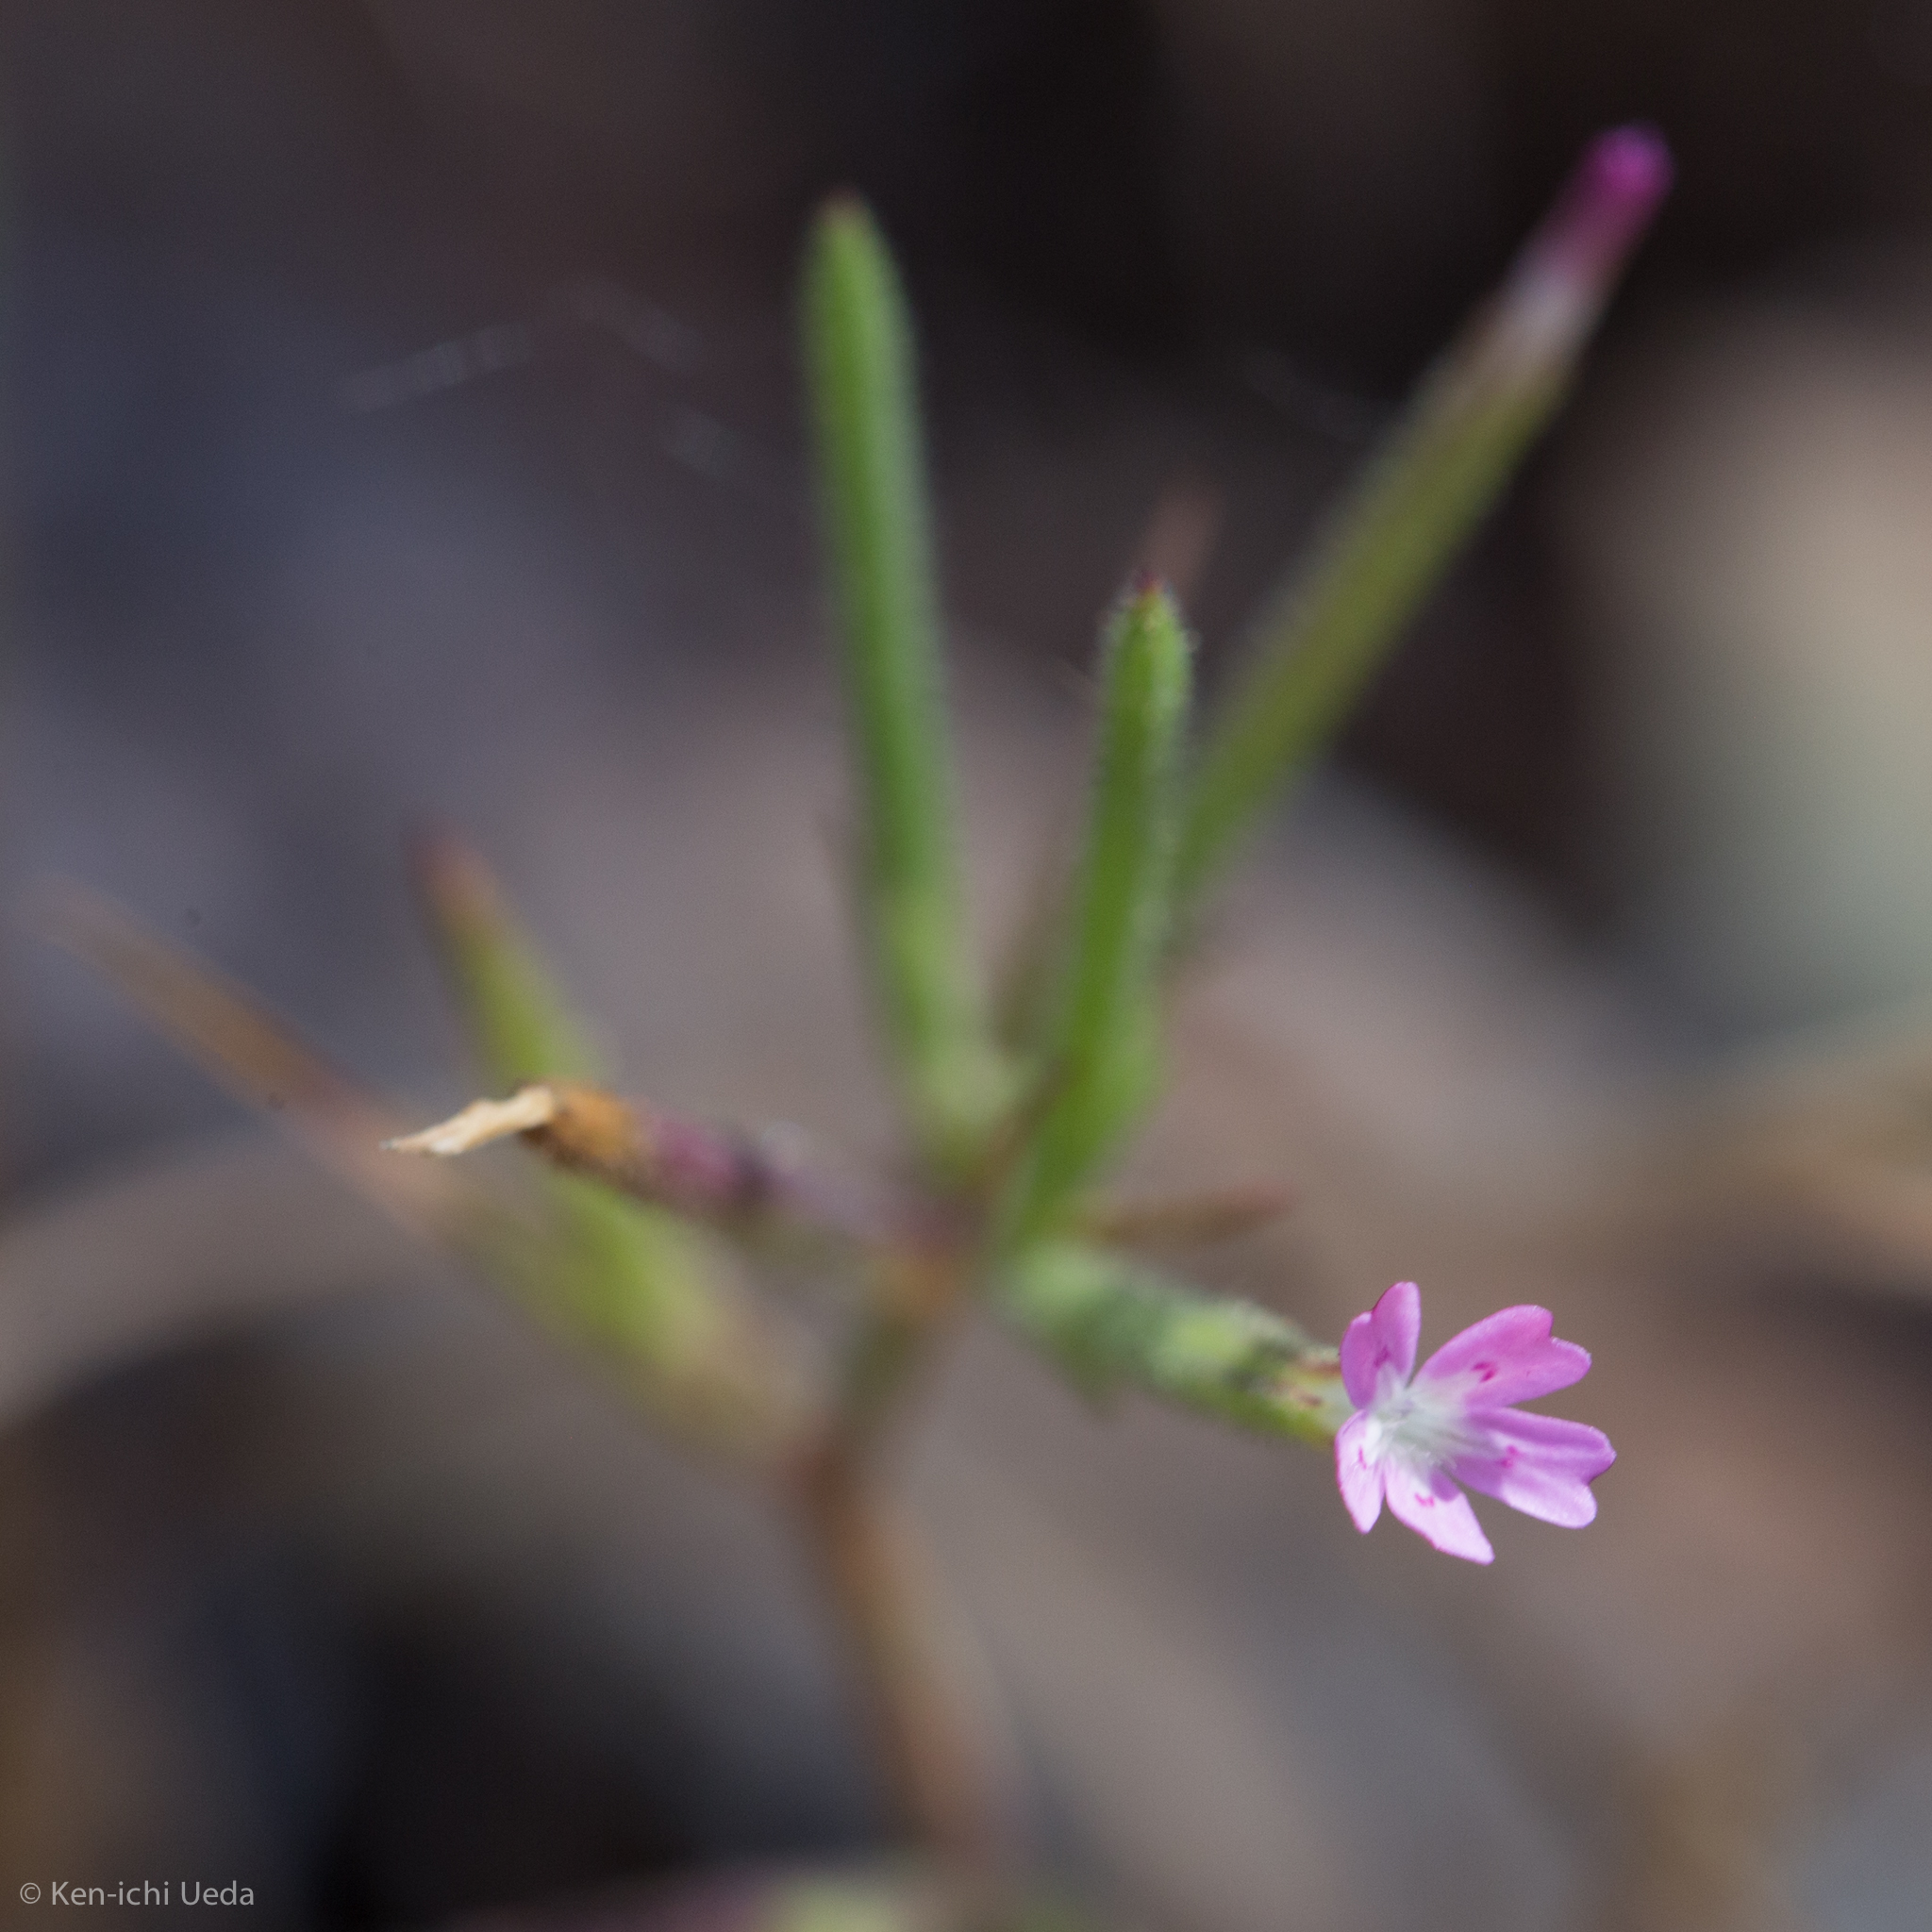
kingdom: Plantae
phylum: Tracheophyta
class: Magnoliopsida
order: Caryophyllales
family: Caryophyllaceae
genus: Dianthus
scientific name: Dianthus nudiflorus
